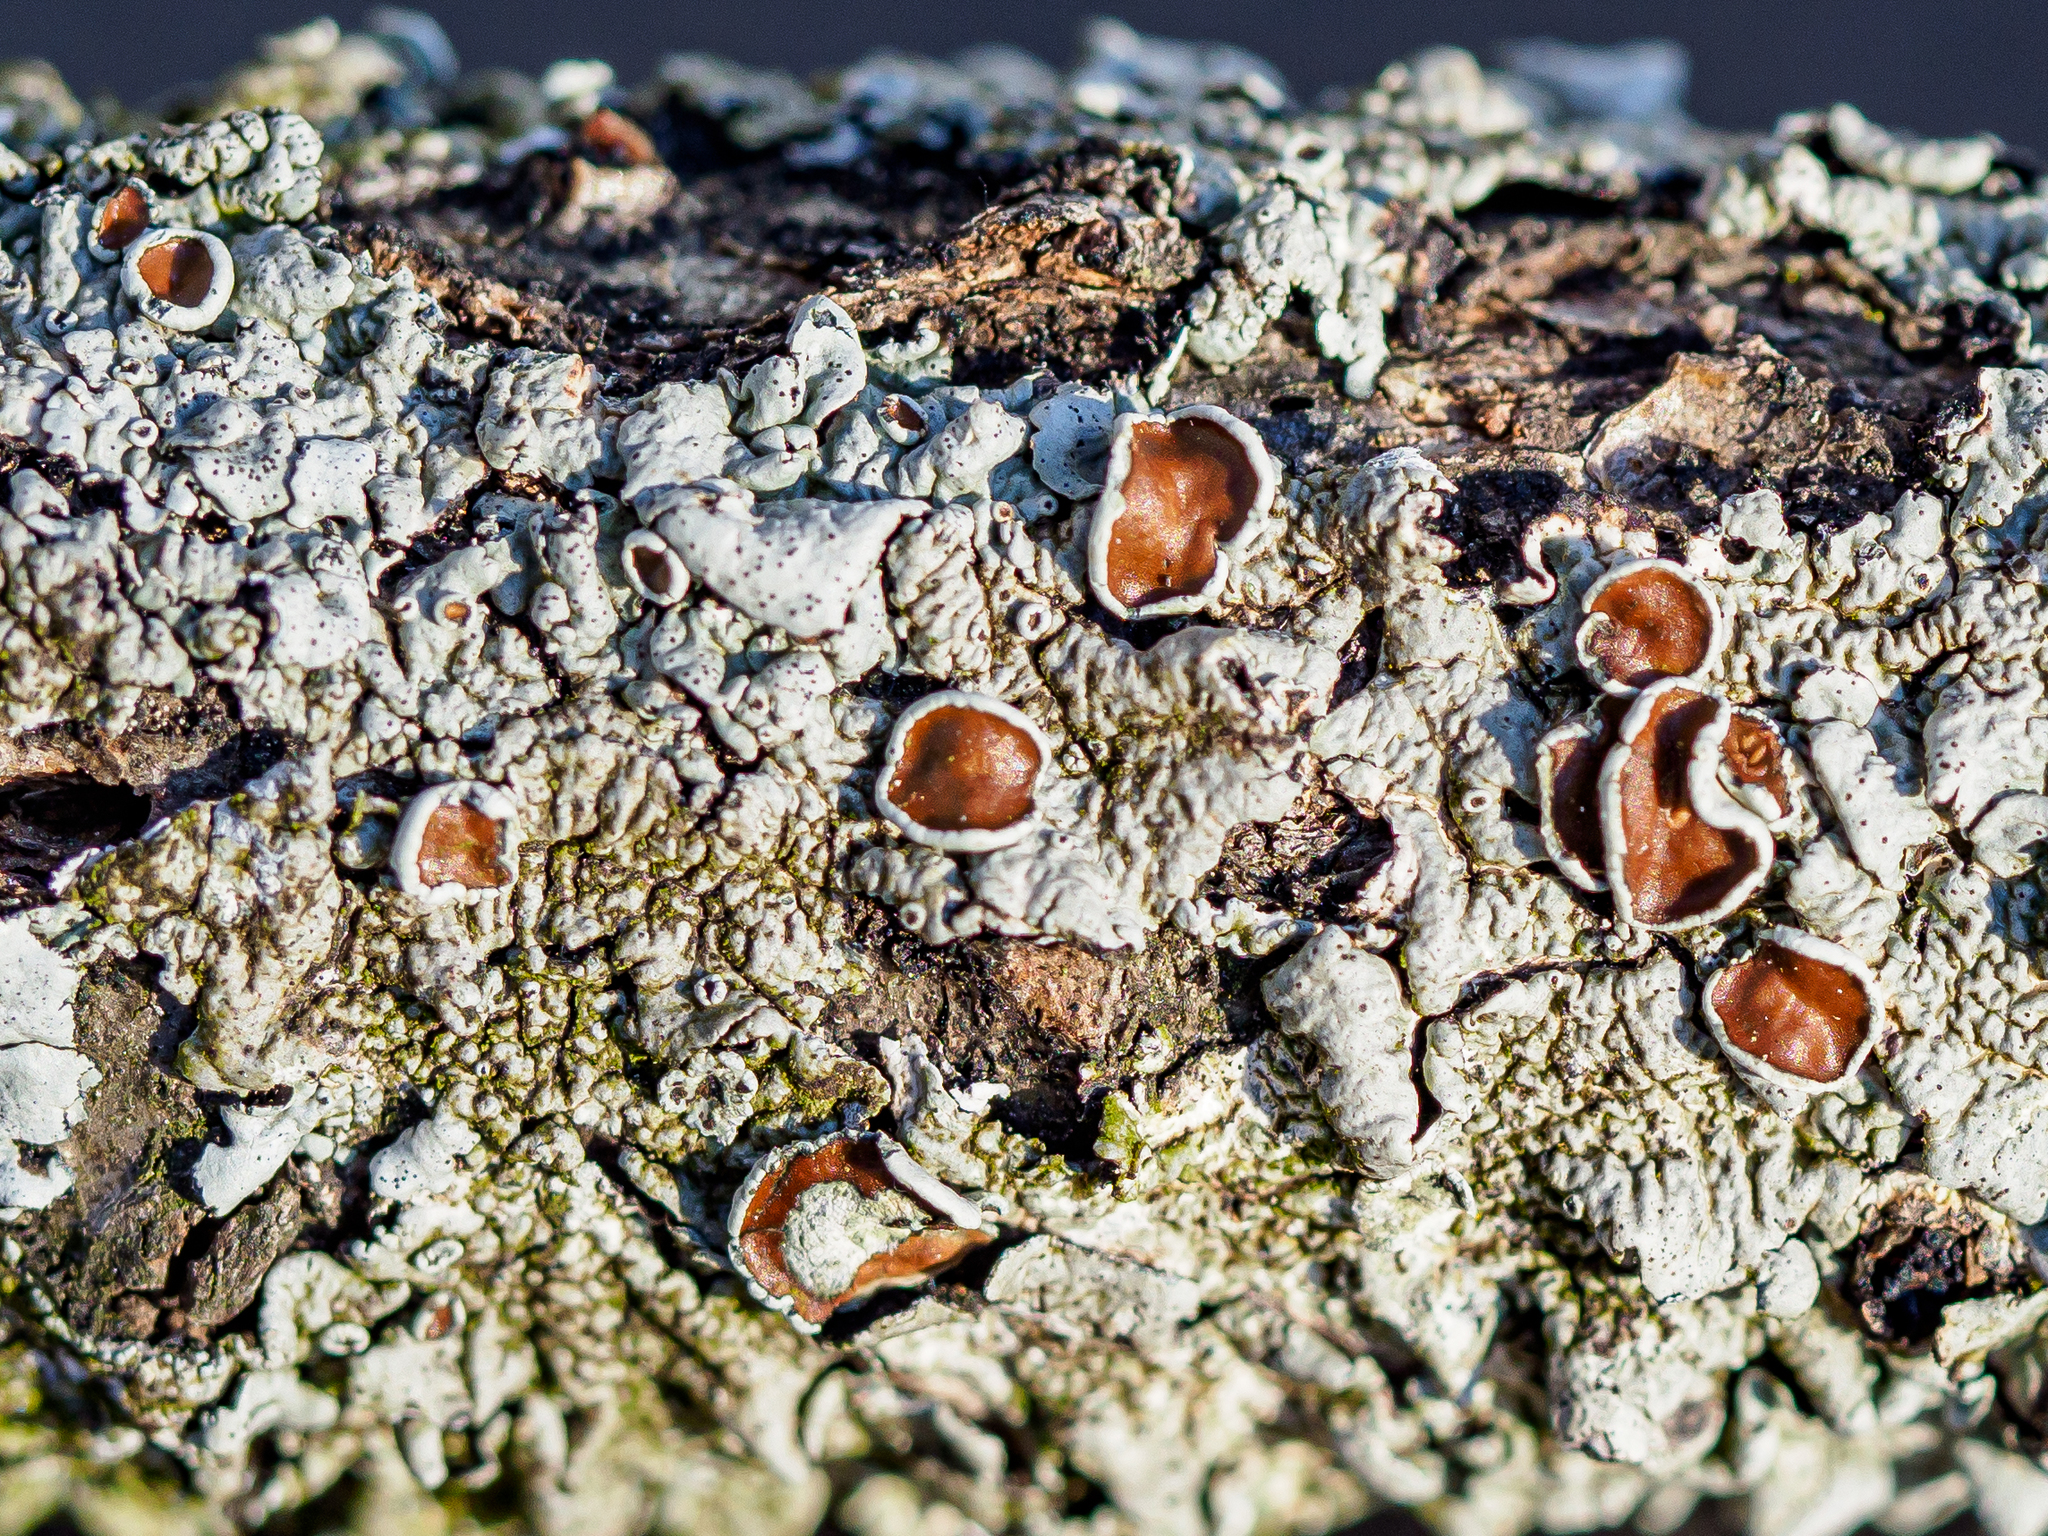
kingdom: Fungi
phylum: Ascomycota
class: Lecanoromycetes
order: Lecanorales
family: Parmeliaceae
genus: Parmelina
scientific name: Parmelina quercina
